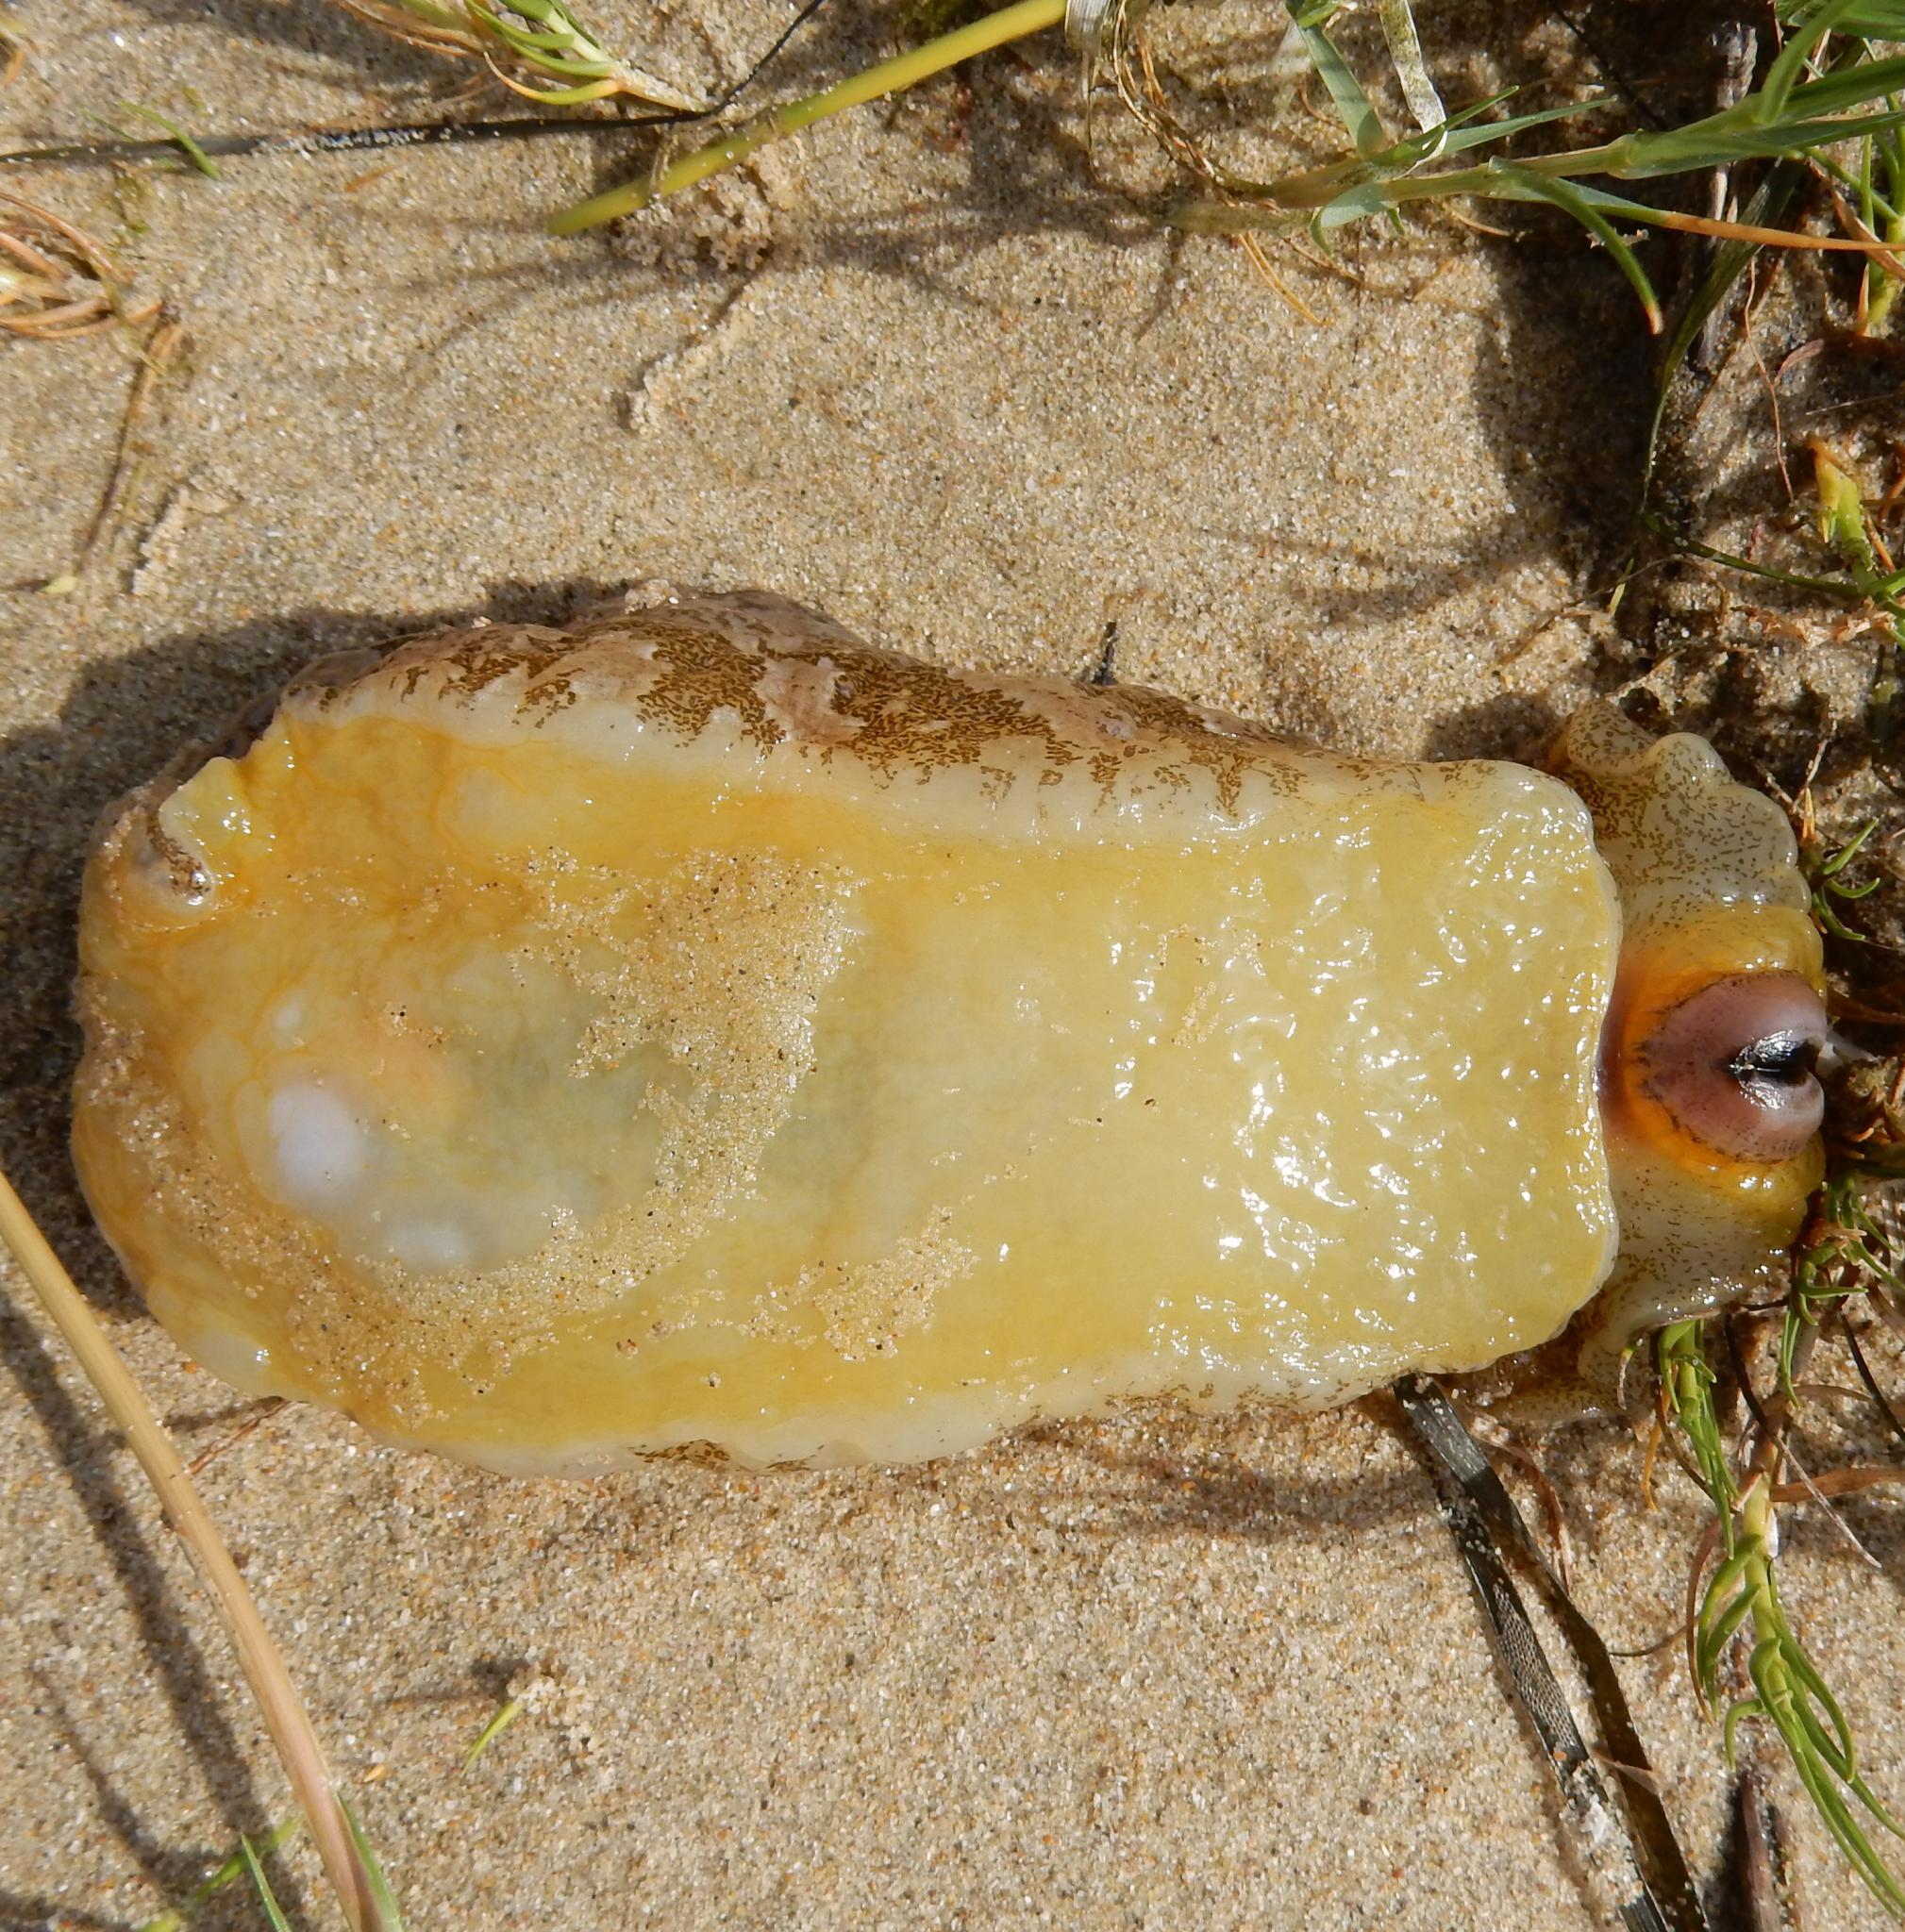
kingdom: Animalia
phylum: Mollusca
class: Gastropoda
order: Aplysiida
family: Aplysiidae
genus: Syphonota
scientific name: Syphonota geographica
